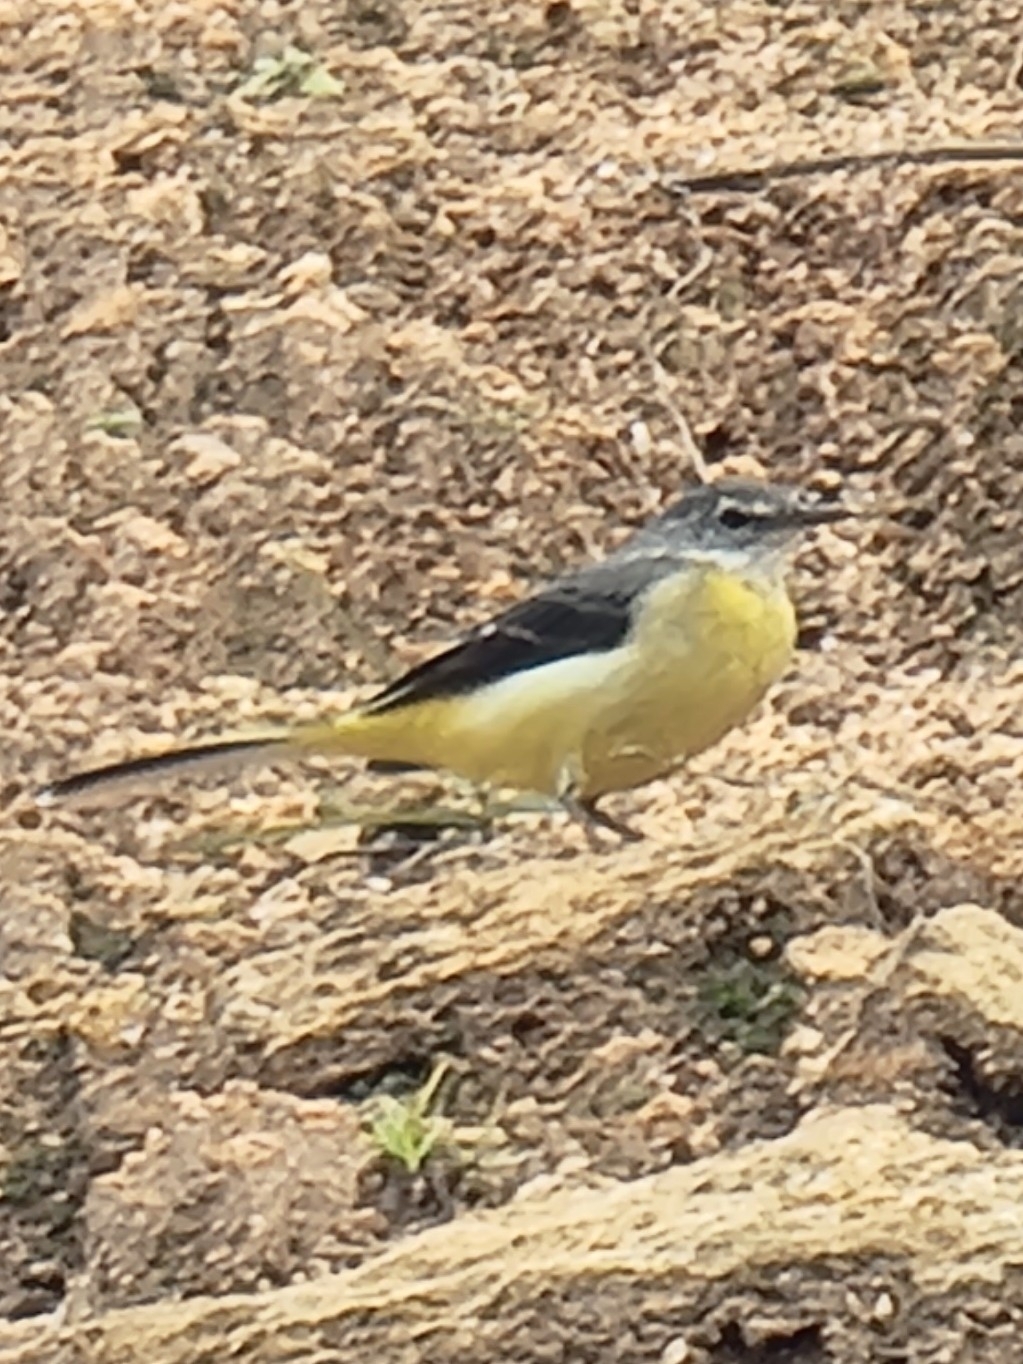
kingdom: Animalia
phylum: Chordata
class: Aves
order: Passeriformes
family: Motacillidae
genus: Motacilla
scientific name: Motacilla cinerea
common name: Grey wagtail
